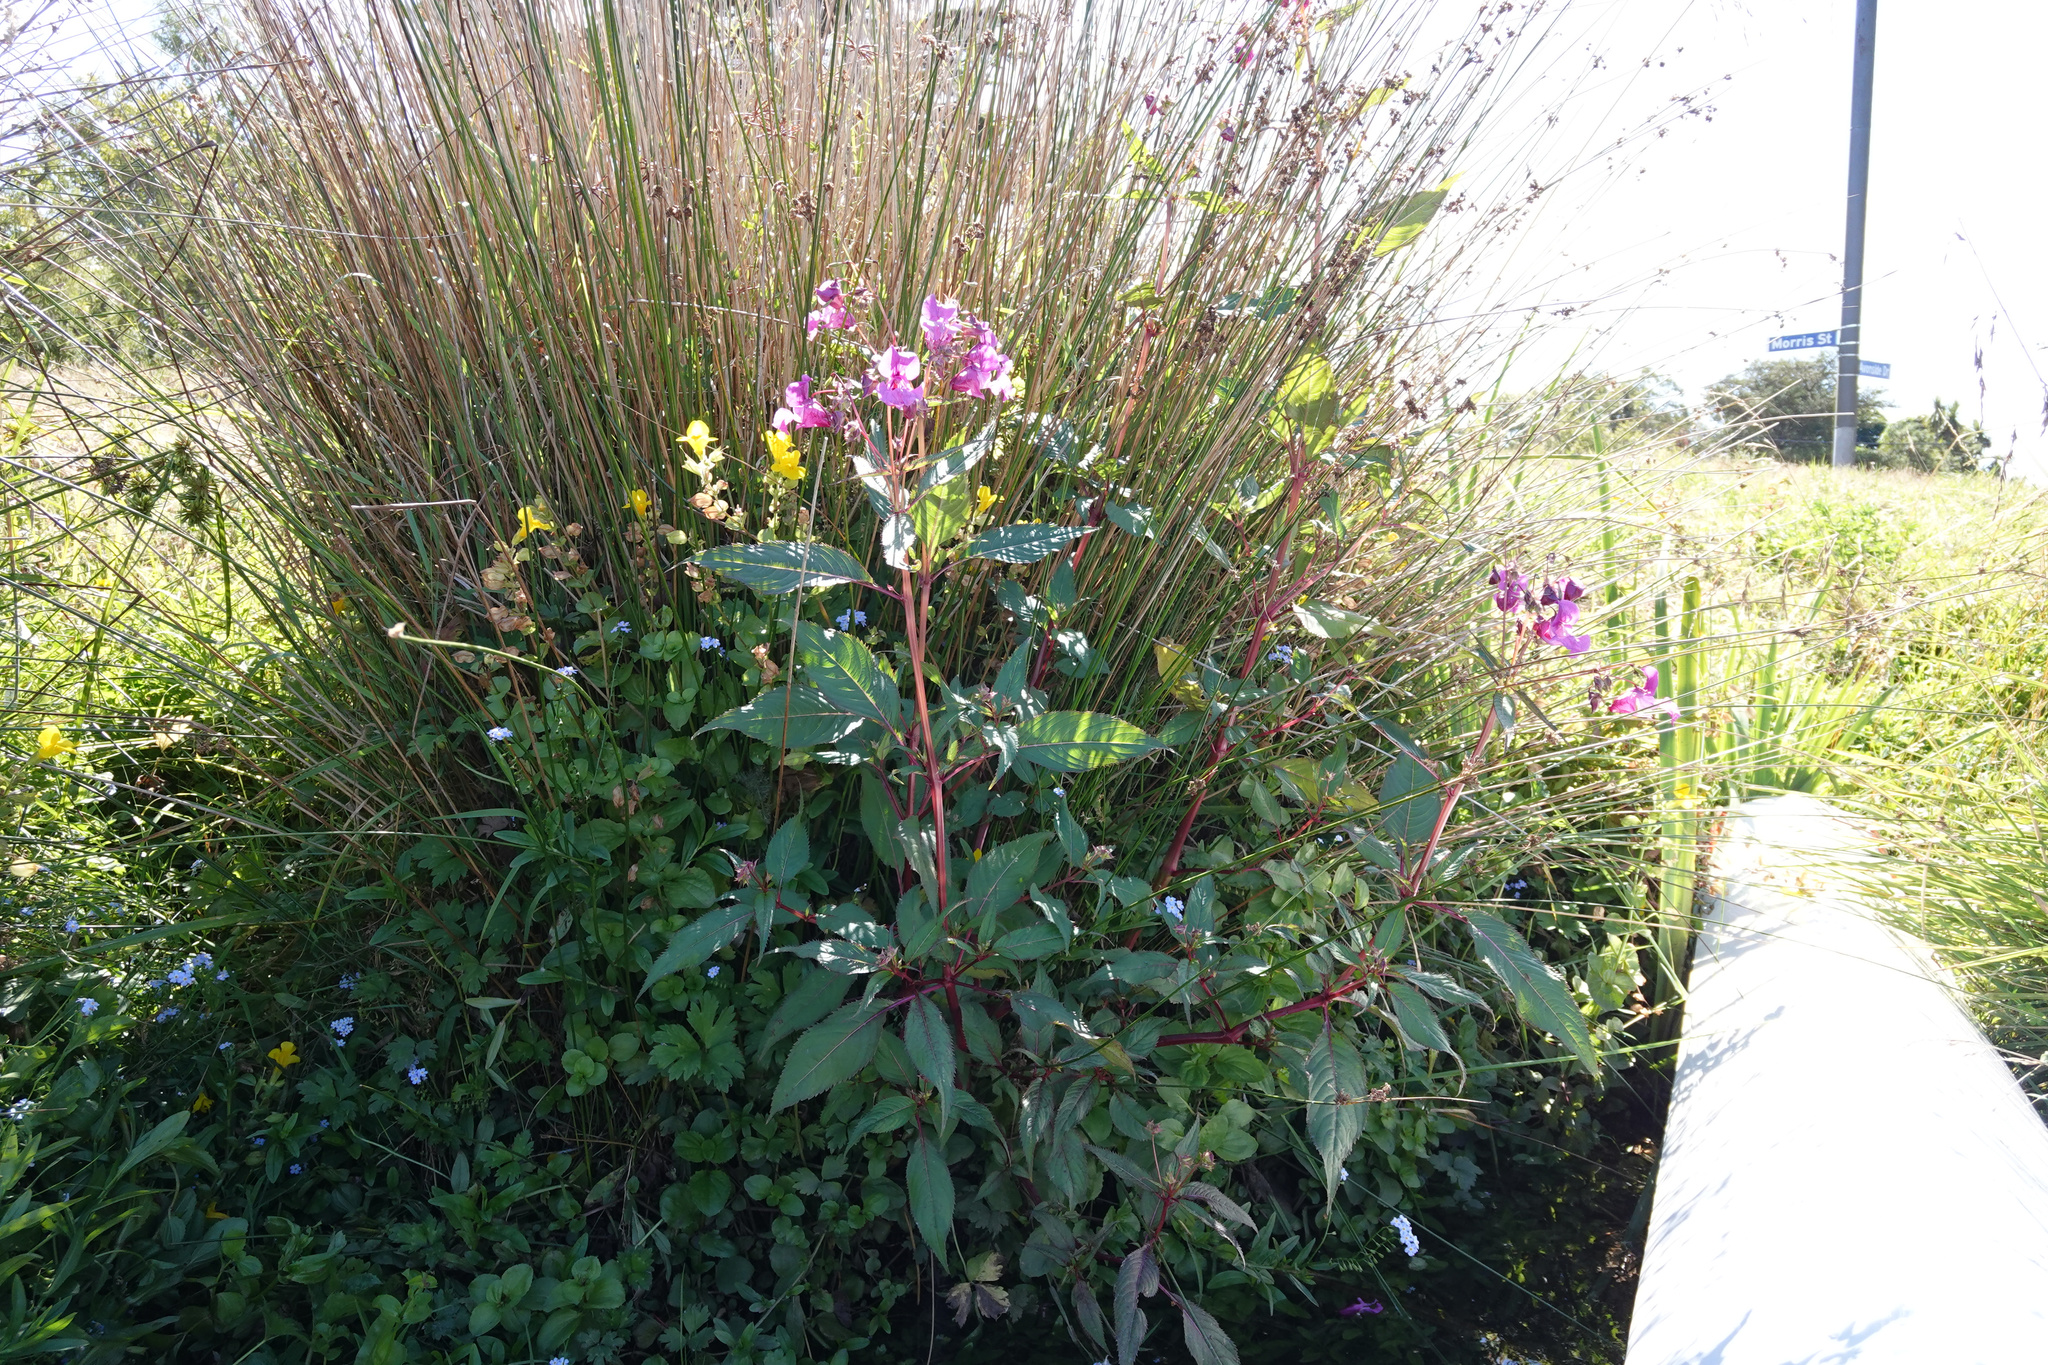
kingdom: Plantae
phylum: Tracheophyta
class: Magnoliopsida
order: Ericales
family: Balsaminaceae
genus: Impatiens
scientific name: Impatiens glandulifera
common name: Himalayan balsam
